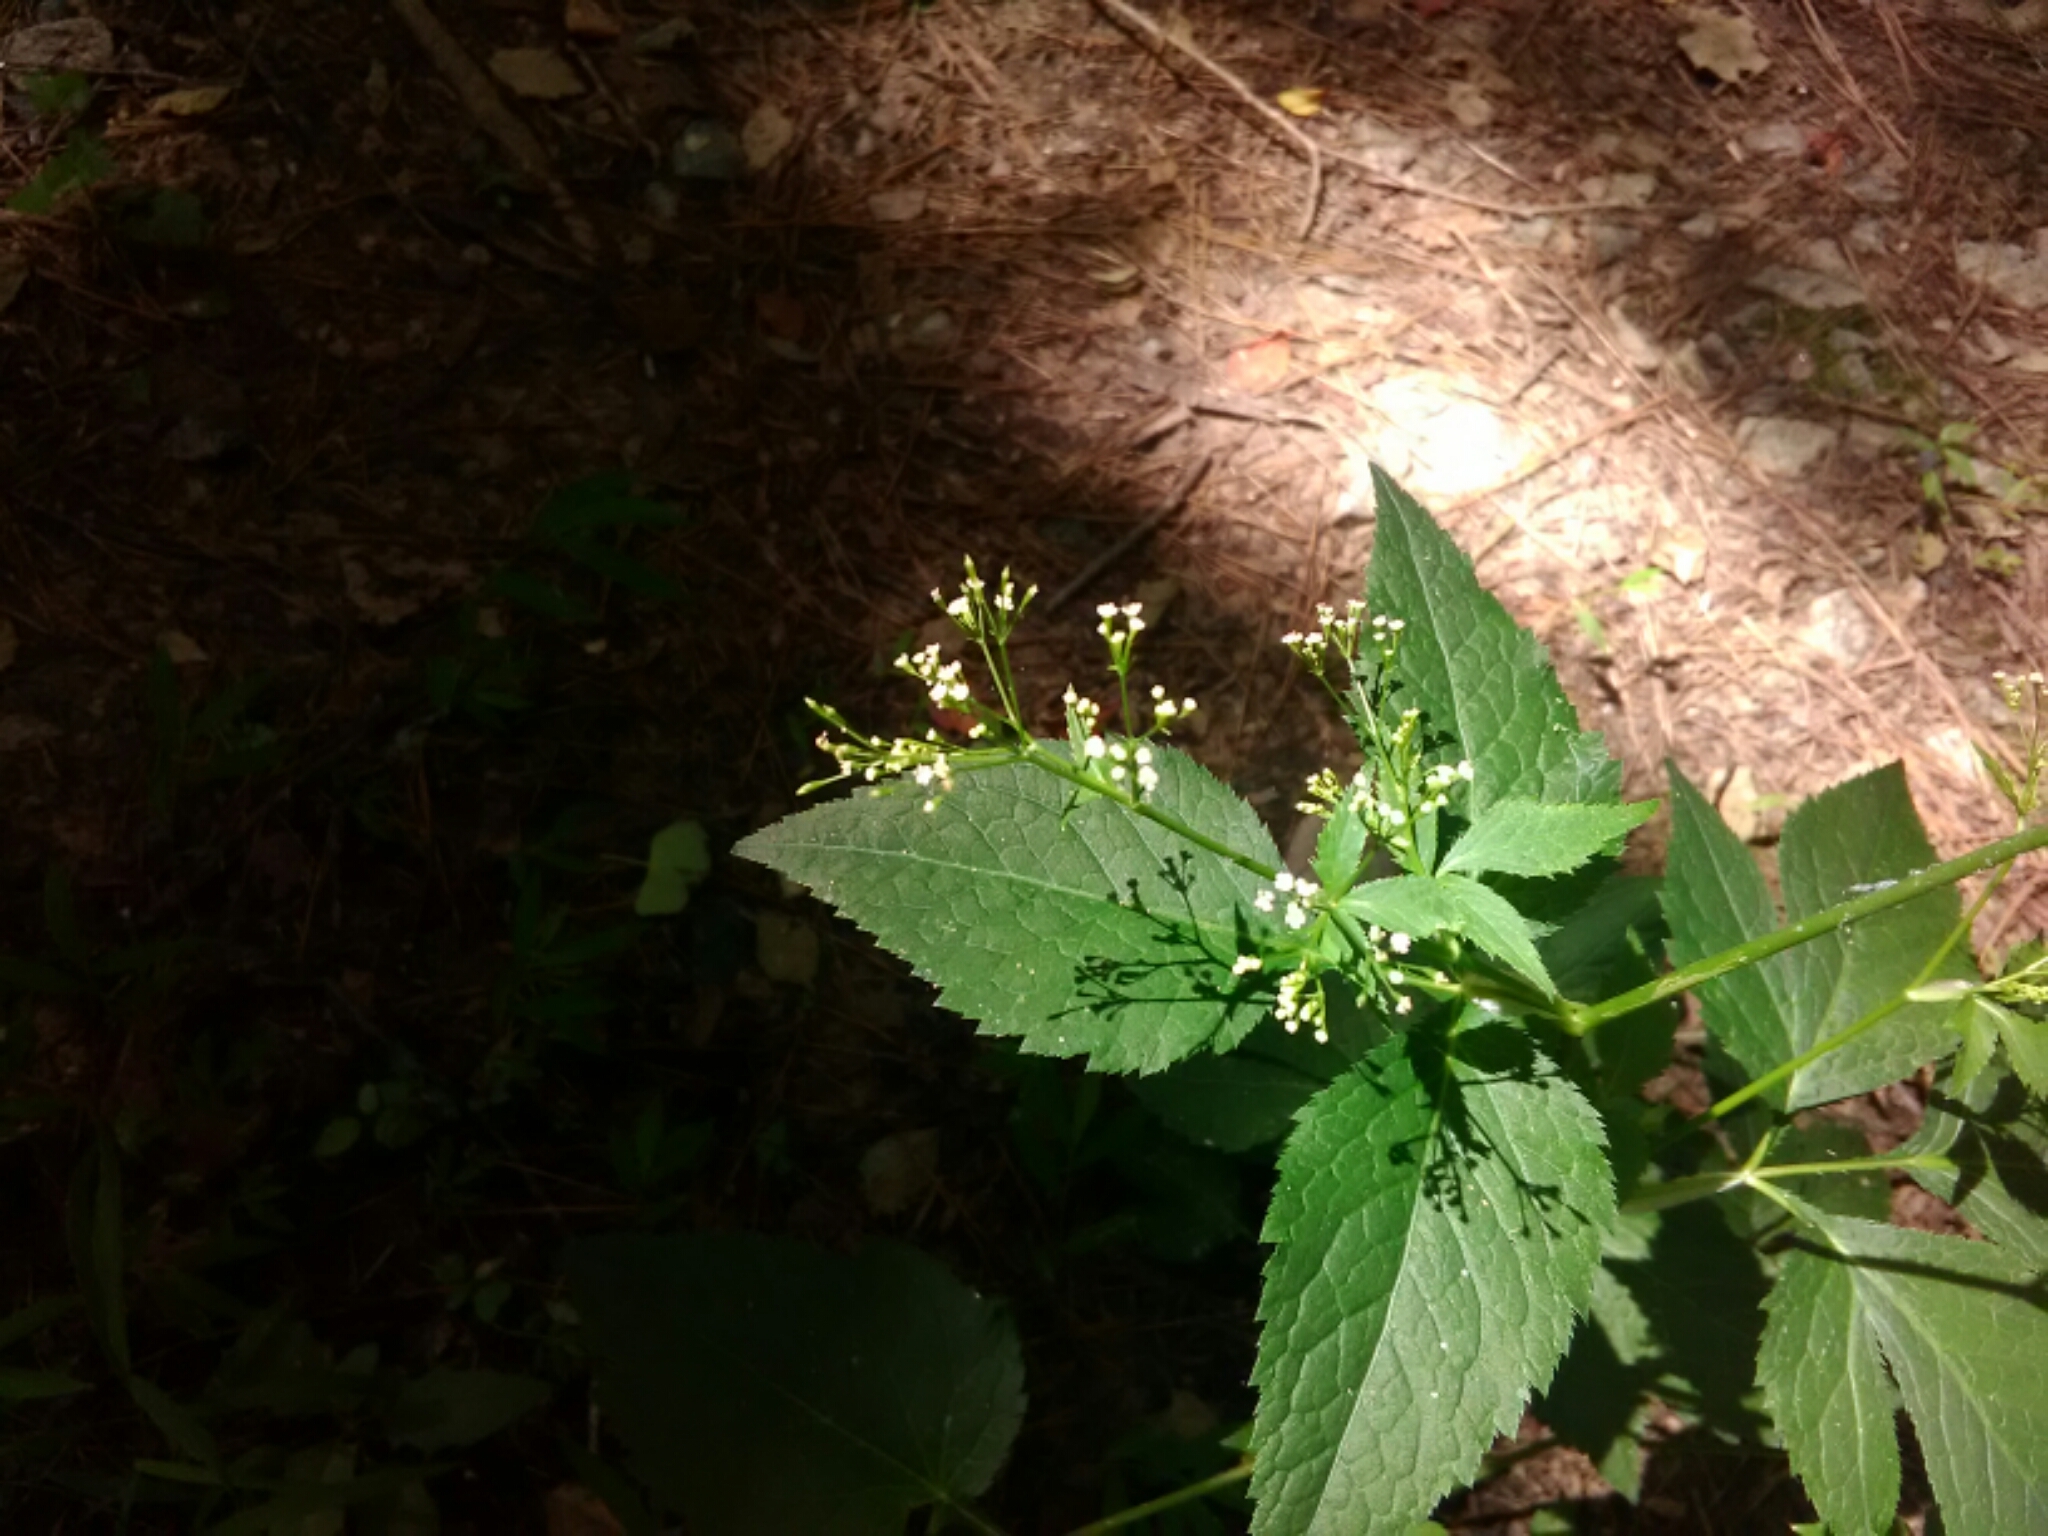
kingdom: Plantae
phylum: Tracheophyta
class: Magnoliopsida
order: Apiales
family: Apiaceae
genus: Cryptotaenia
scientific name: Cryptotaenia canadensis
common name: Honewort
